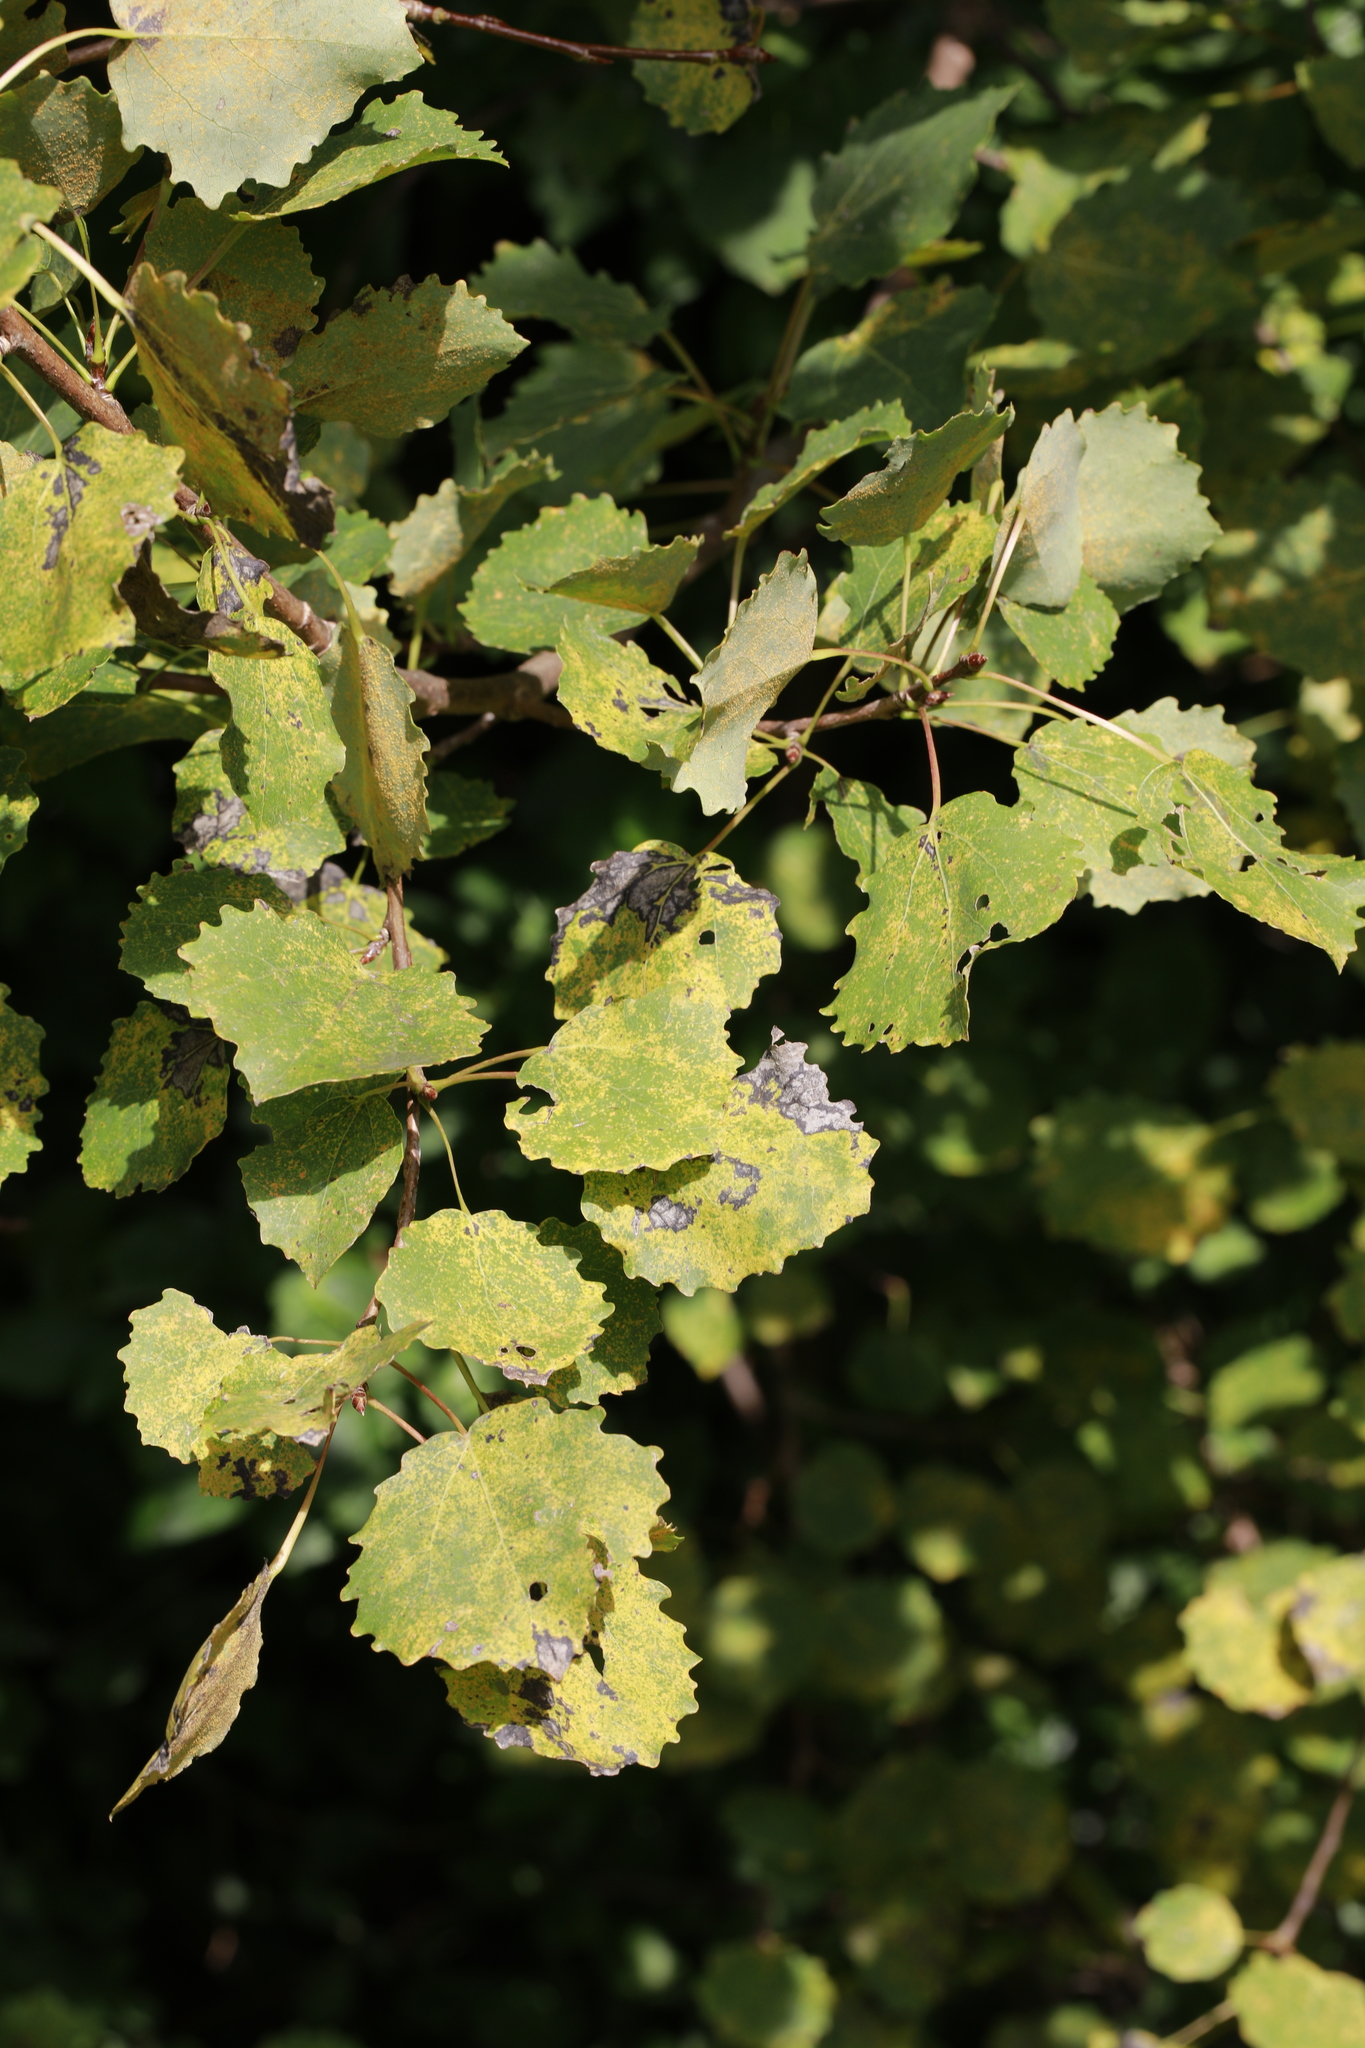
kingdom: Plantae
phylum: Tracheophyta
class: Magnoliopsida
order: Malpighiales
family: Salicaceae
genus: Populus
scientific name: Populus tremula
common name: European aspen
